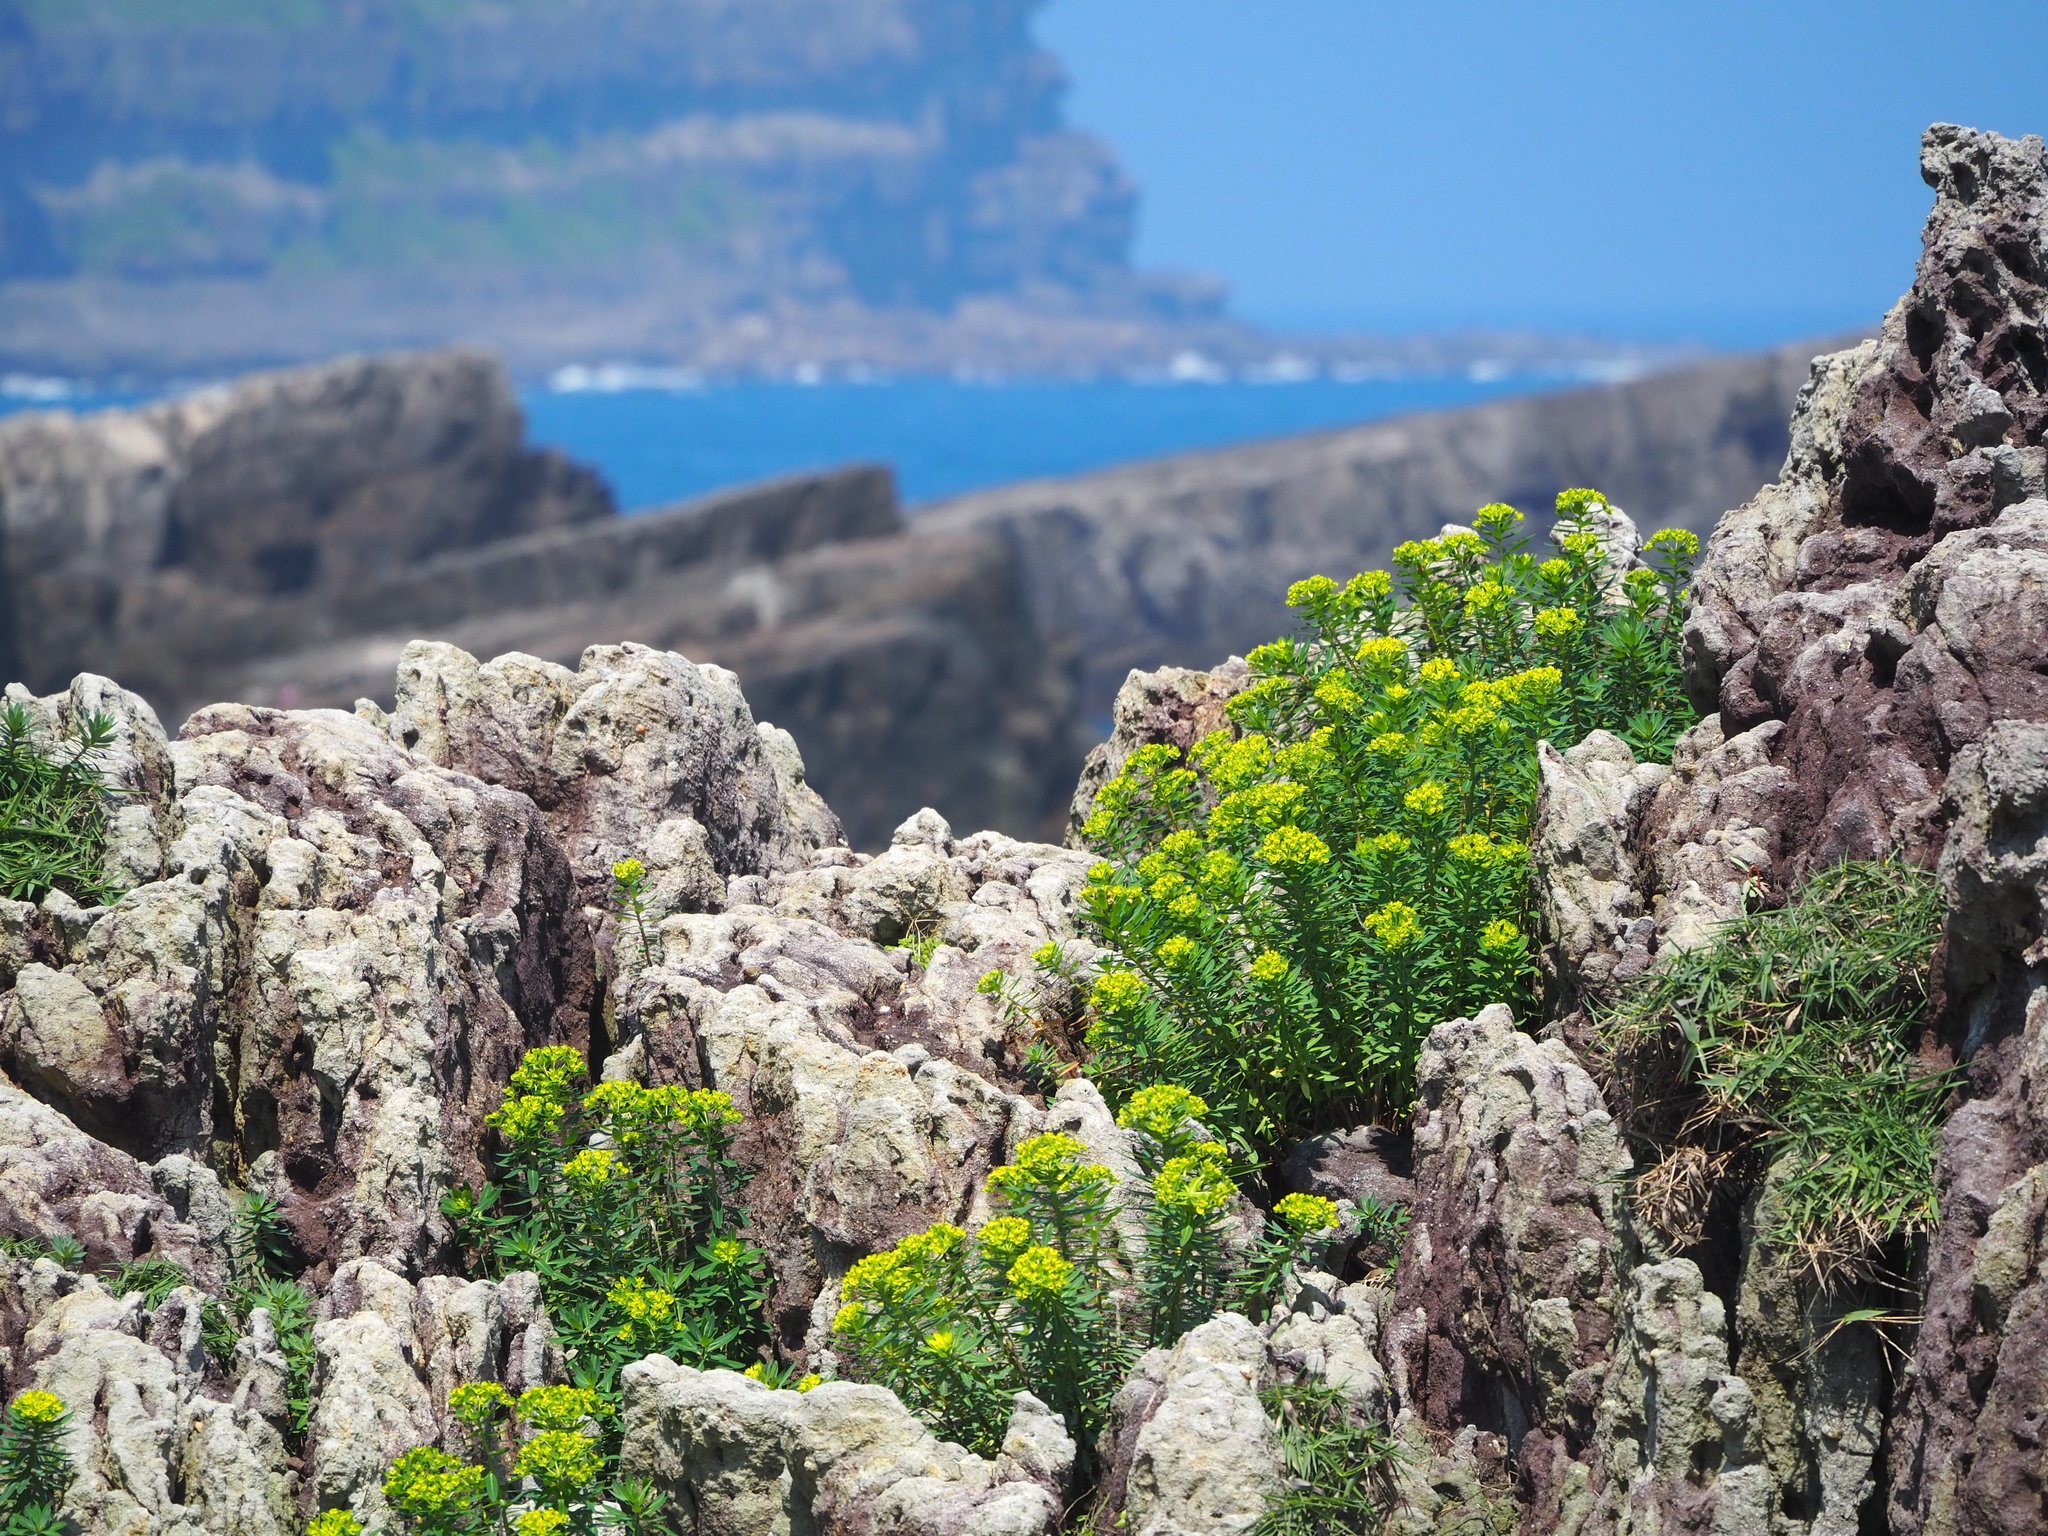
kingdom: Plantae
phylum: Tracheophyta
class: Magnoliopsida
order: Malpighiales
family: Euphorbiaceae
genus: Euphorbia
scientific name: Euphorbia jolkinii
